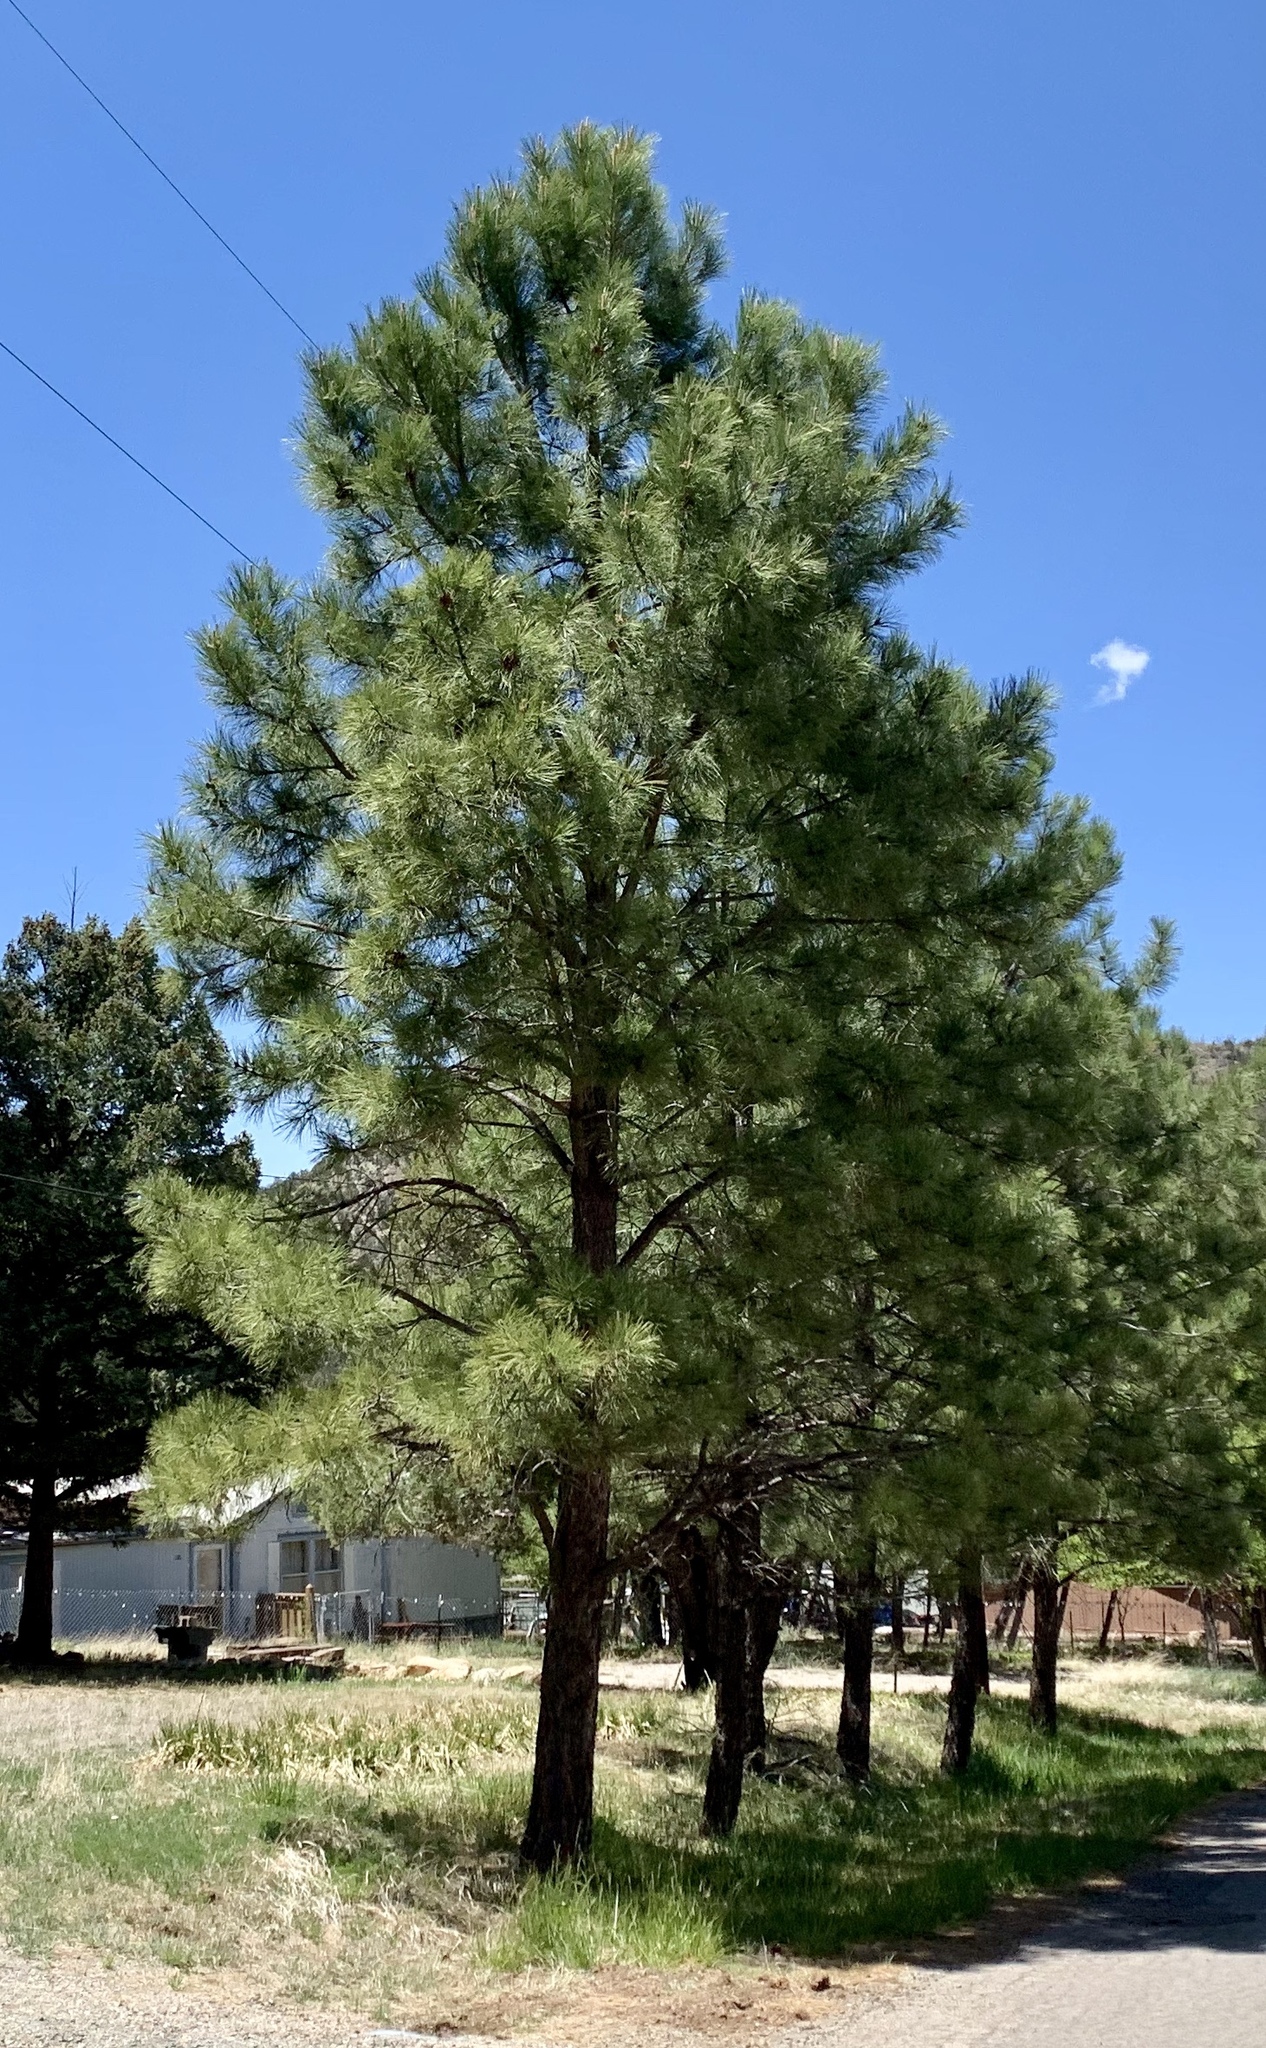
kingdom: Plantae
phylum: Tracheophyta
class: Pinopsida
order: Pinales
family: Pinaceae
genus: Pinus
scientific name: Pinus ponderosa
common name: Western yellow-pine
